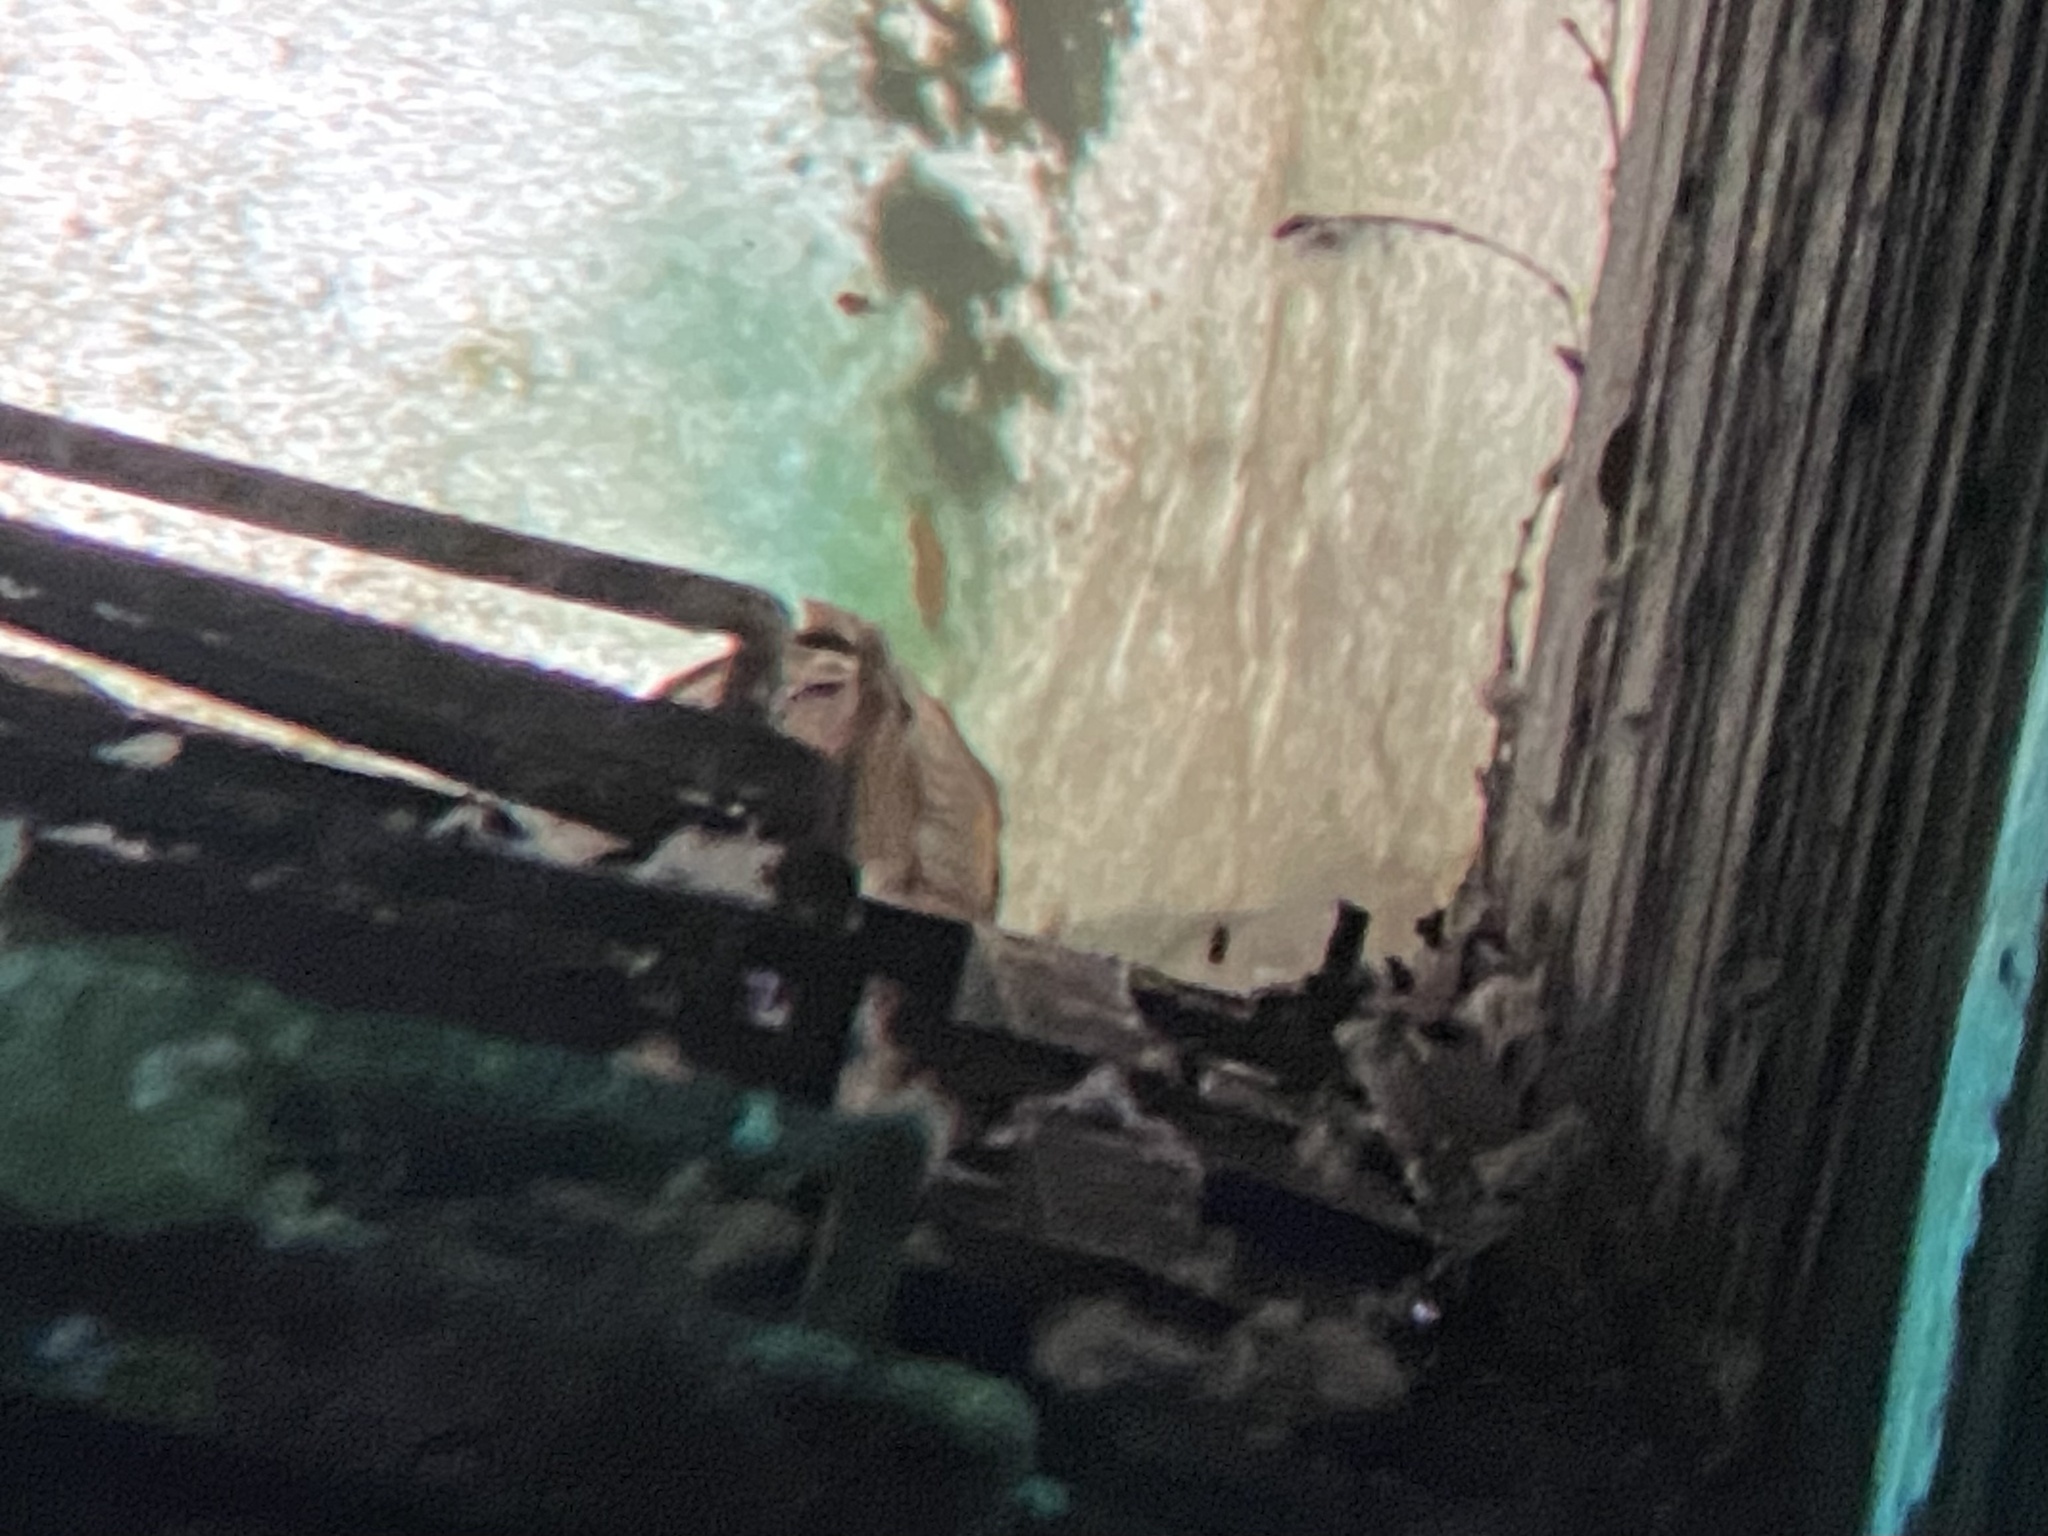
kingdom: Animalia
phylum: Chordata
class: Aves
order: Strigiformes
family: Tytonidae
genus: Tyto
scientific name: Tyto alba
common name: Barn owl
